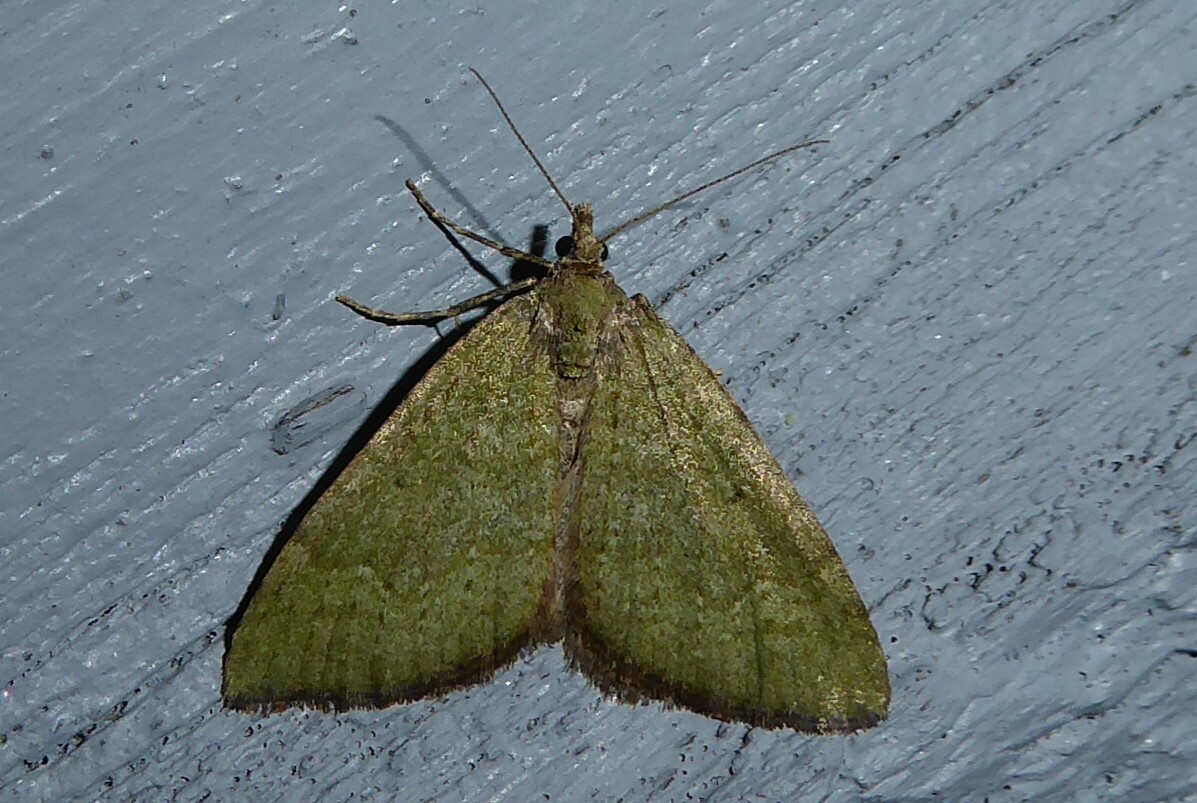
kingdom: Animalia
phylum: Arthropoda
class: Insecta
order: Lepidoptera
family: Geometridae
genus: Epyaxa
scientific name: Epyaxa rosearia
